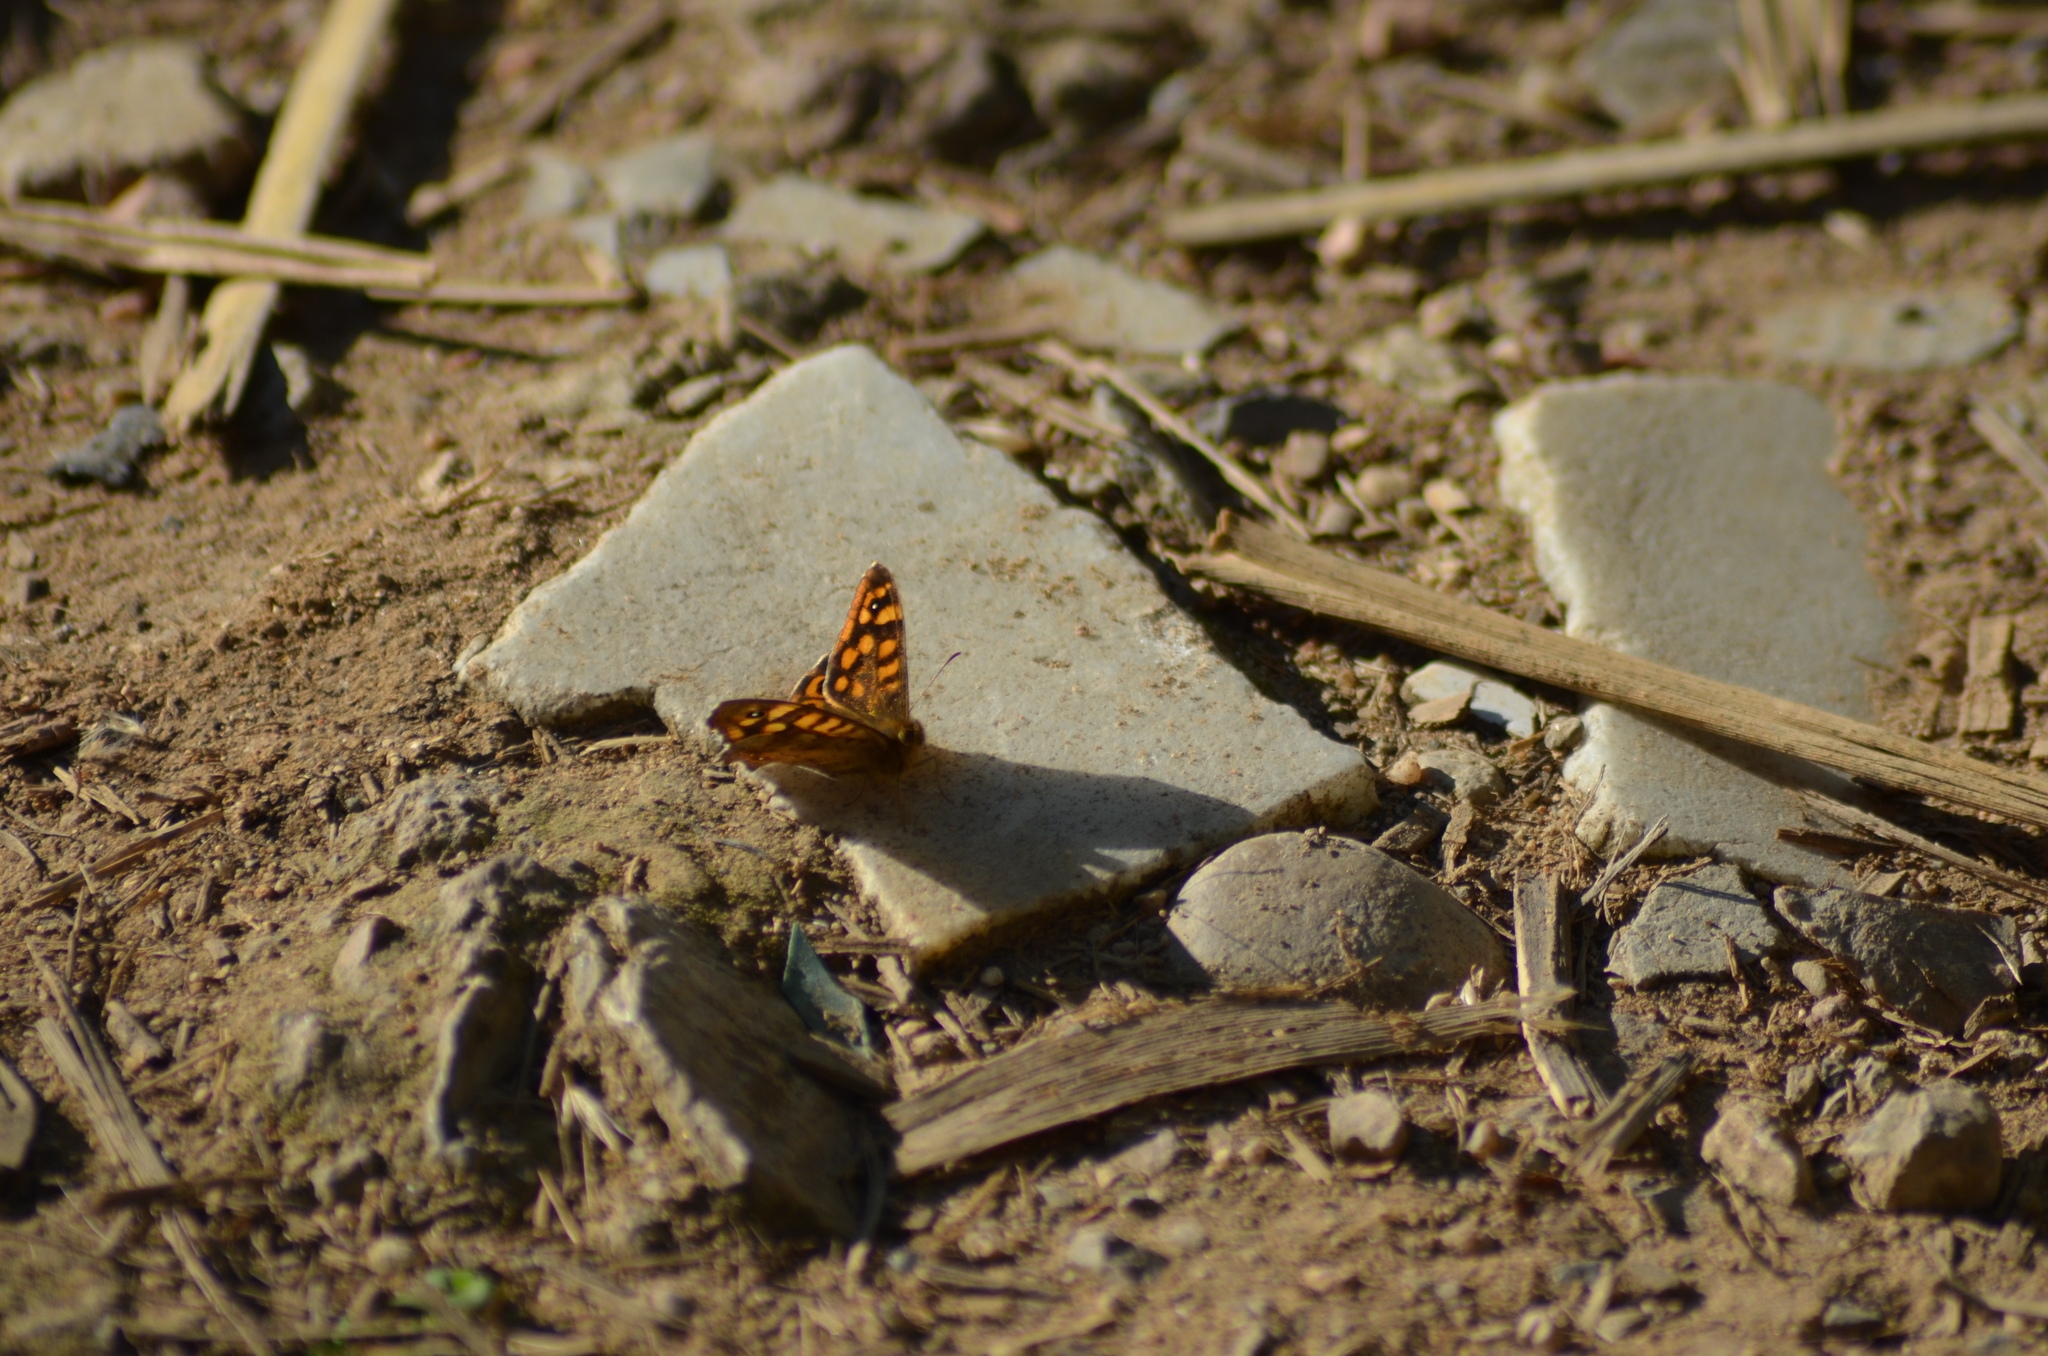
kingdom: Animalia
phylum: Arthropoda
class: Insecta
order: Lepidoptera
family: Nymphalidae
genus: Pararge
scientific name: Pararge aegeria
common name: Speckled wood
